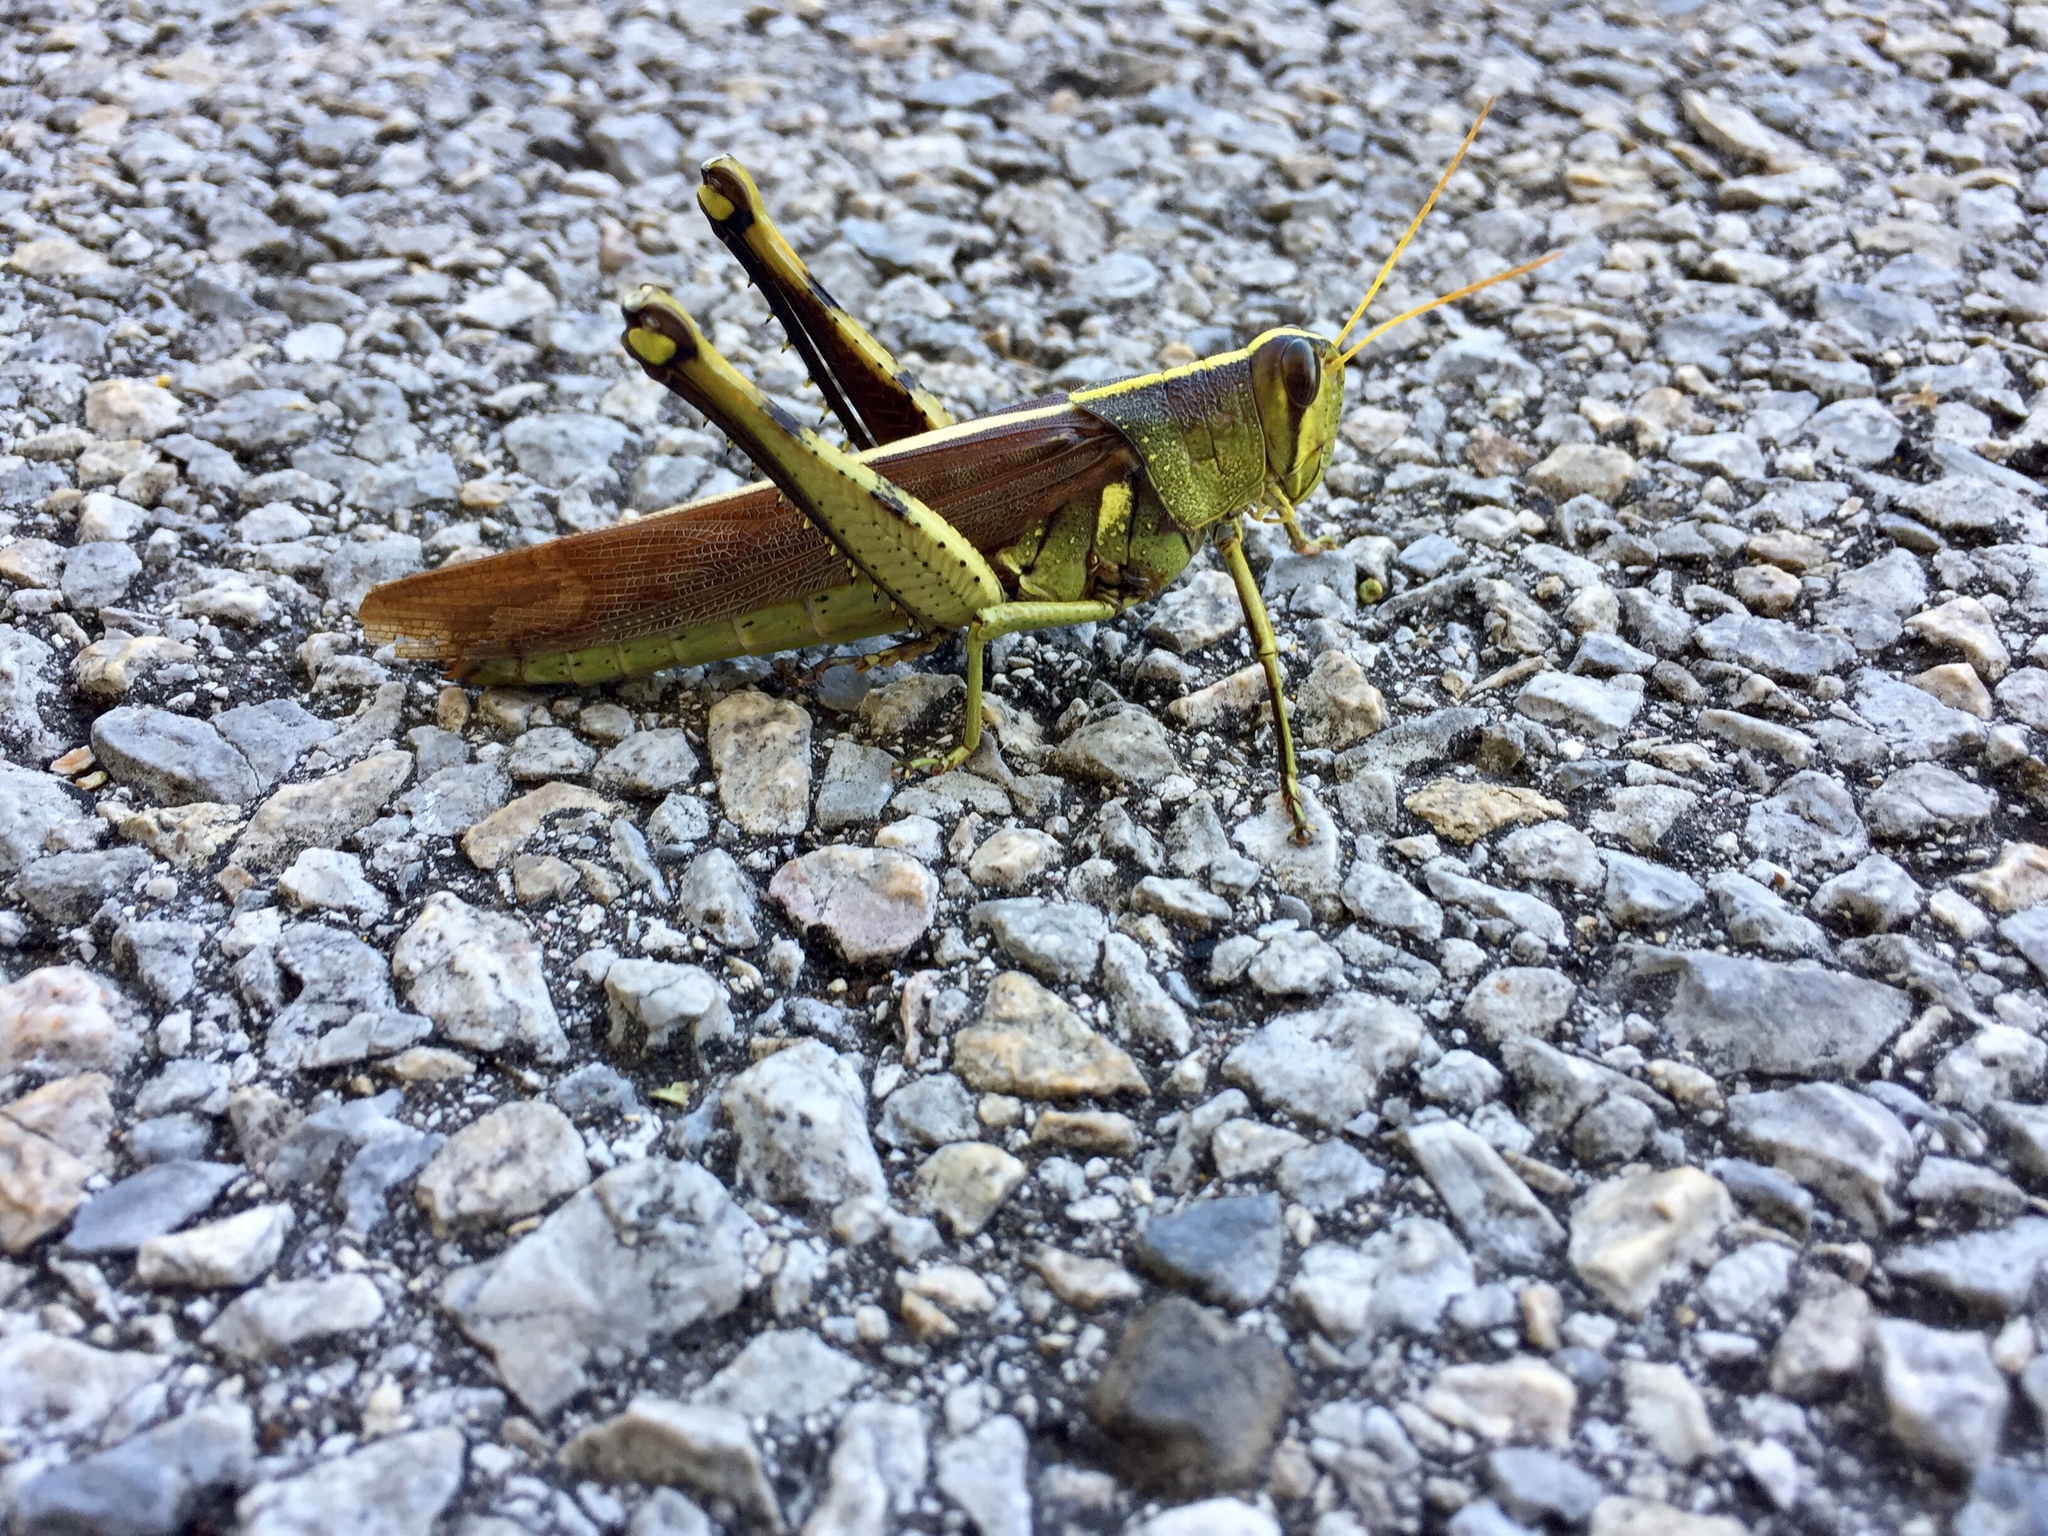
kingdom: Animalia
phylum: Arthropoda
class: Insecta
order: Orthoptera
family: Acrididae
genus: Schistocerca
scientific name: Schistocerca obscura
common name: Obscure bird grasshopper
